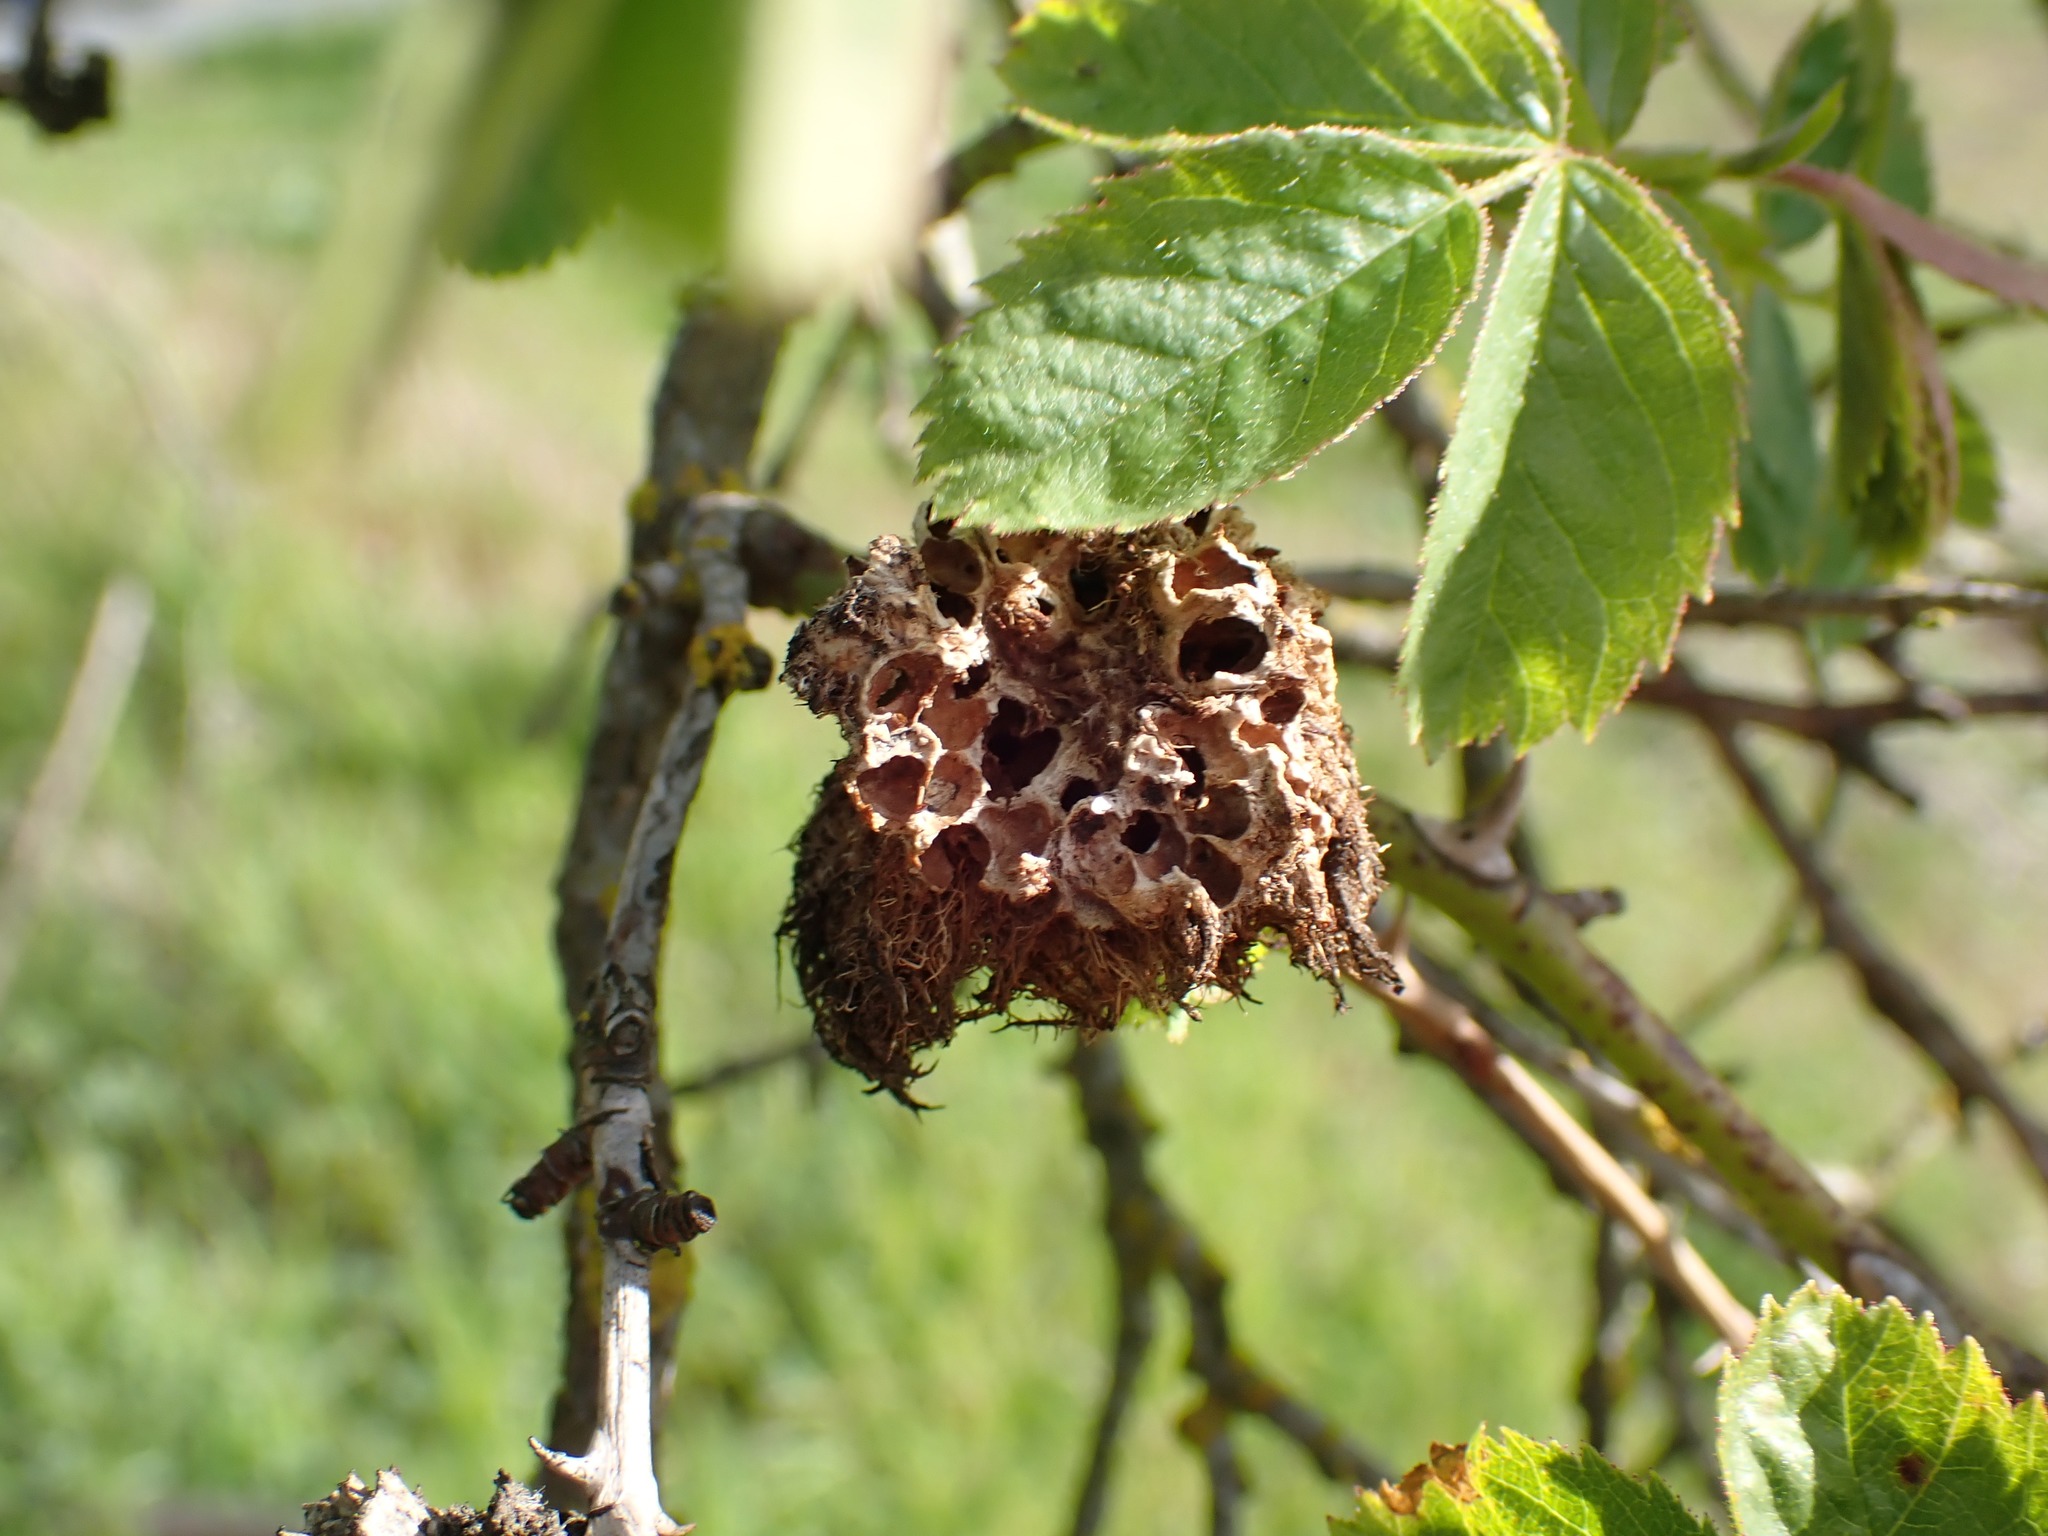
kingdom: Animalia
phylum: Arthropoda
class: Insecta
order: Hymenoptera
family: Cynipidae
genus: Diplolepis
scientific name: Diplolepis rosae
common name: Bedeguar gall
